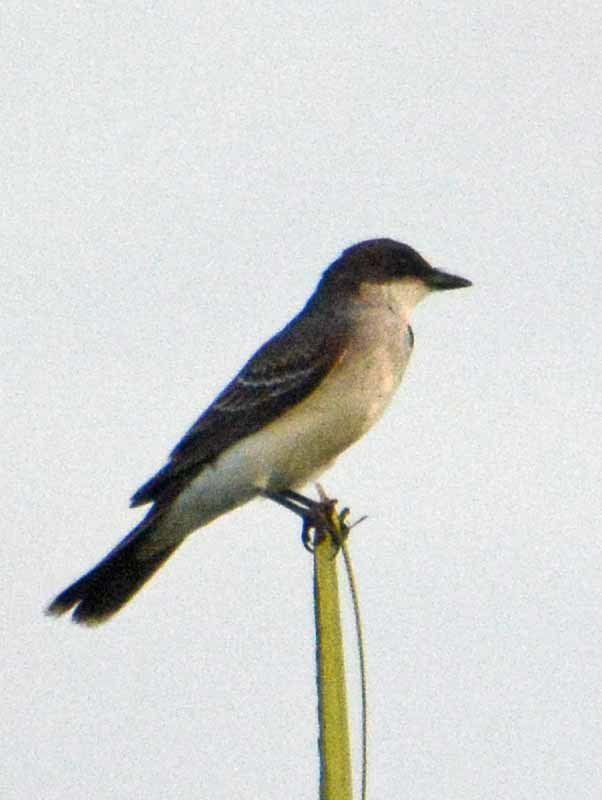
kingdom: Animalia
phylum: Chordata
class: Aves
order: Passeriformes
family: Tyrannidae
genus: Tyrannus
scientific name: Tyrannus tyrannus
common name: Eastern kingbird
